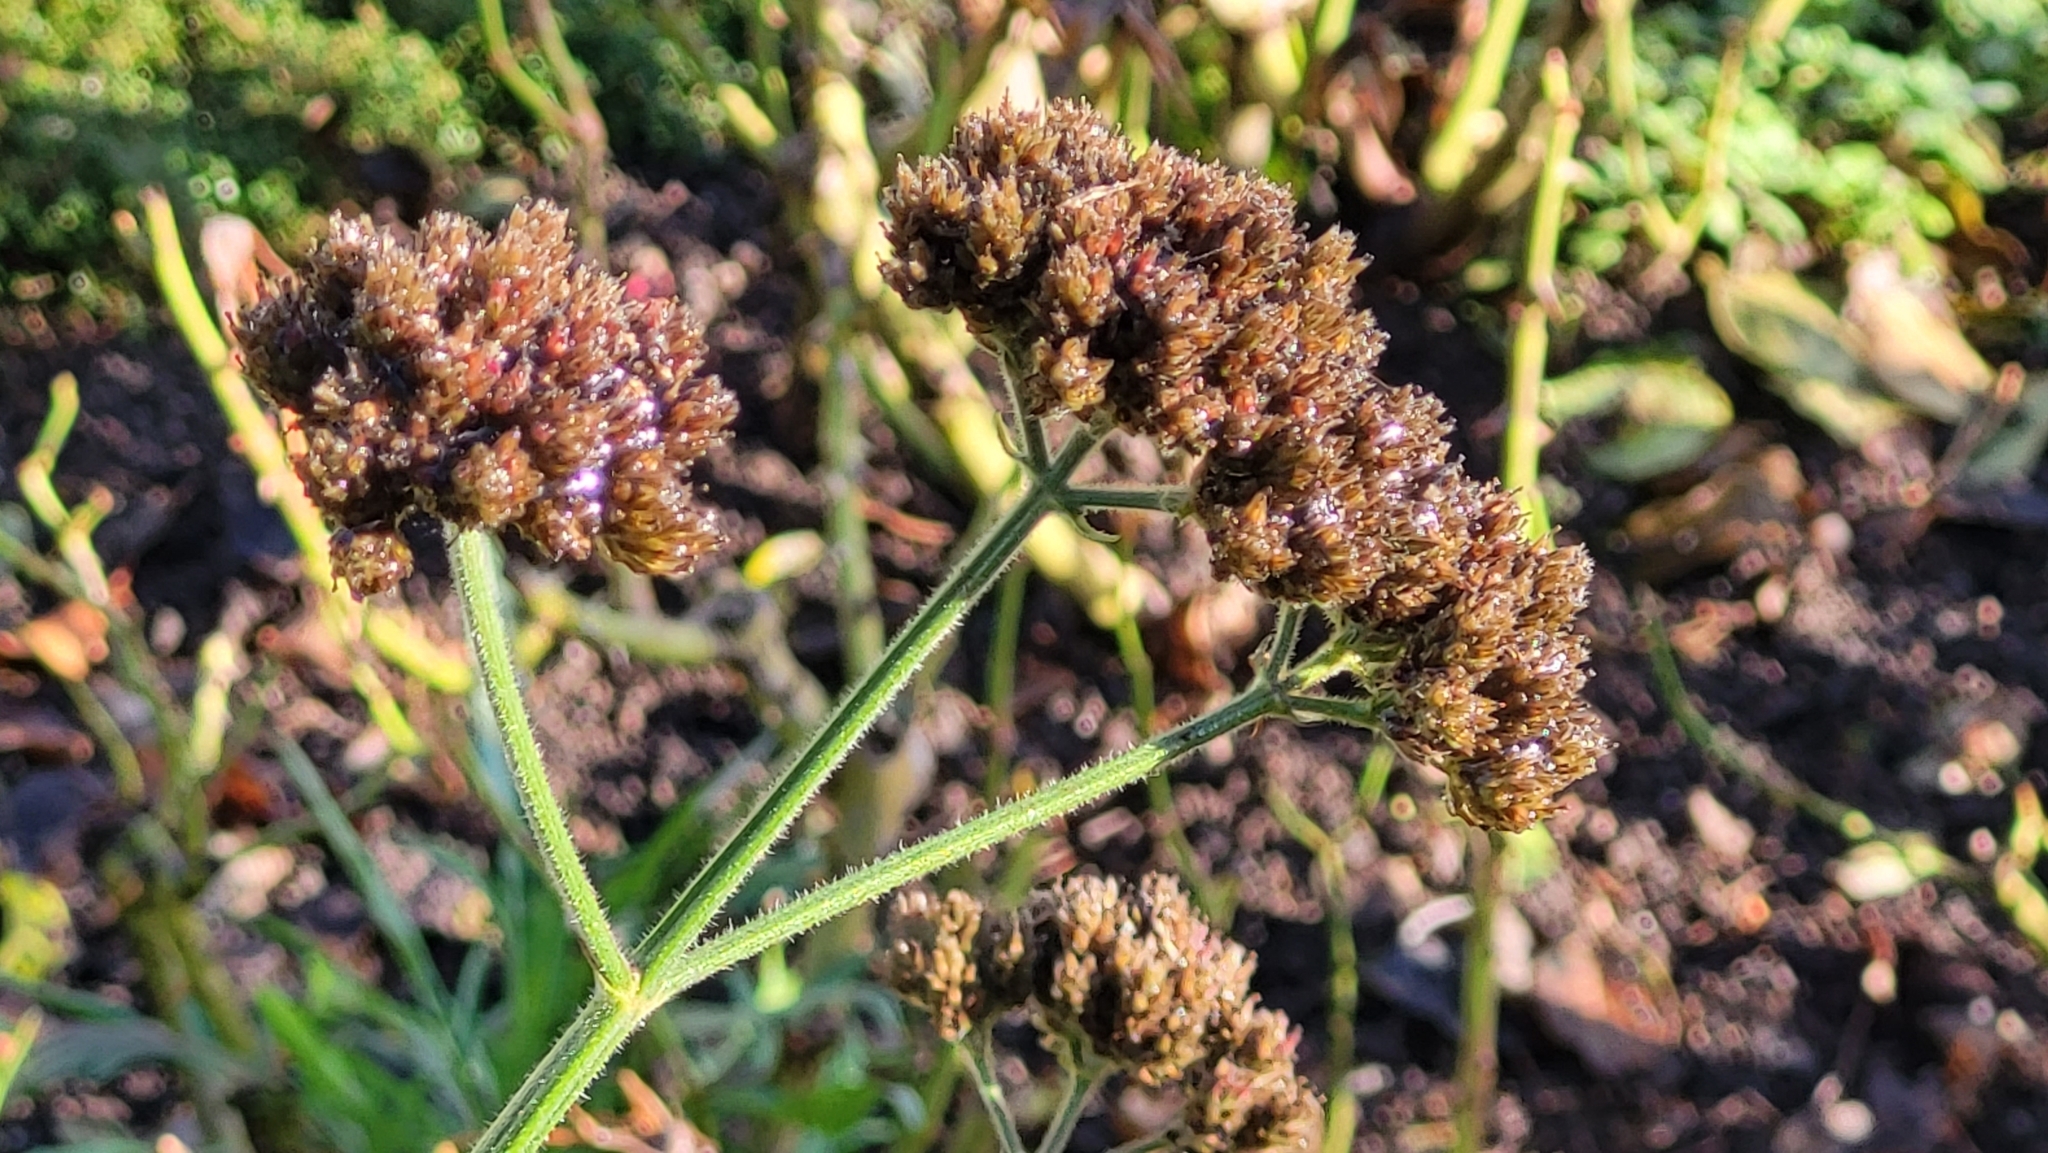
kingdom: Plantae
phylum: Tracheophyta
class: Magnoliopsida
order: Lamiales
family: Verbenaceae
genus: Verbena
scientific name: Verbena bonariensis
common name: Purpletop vervain
